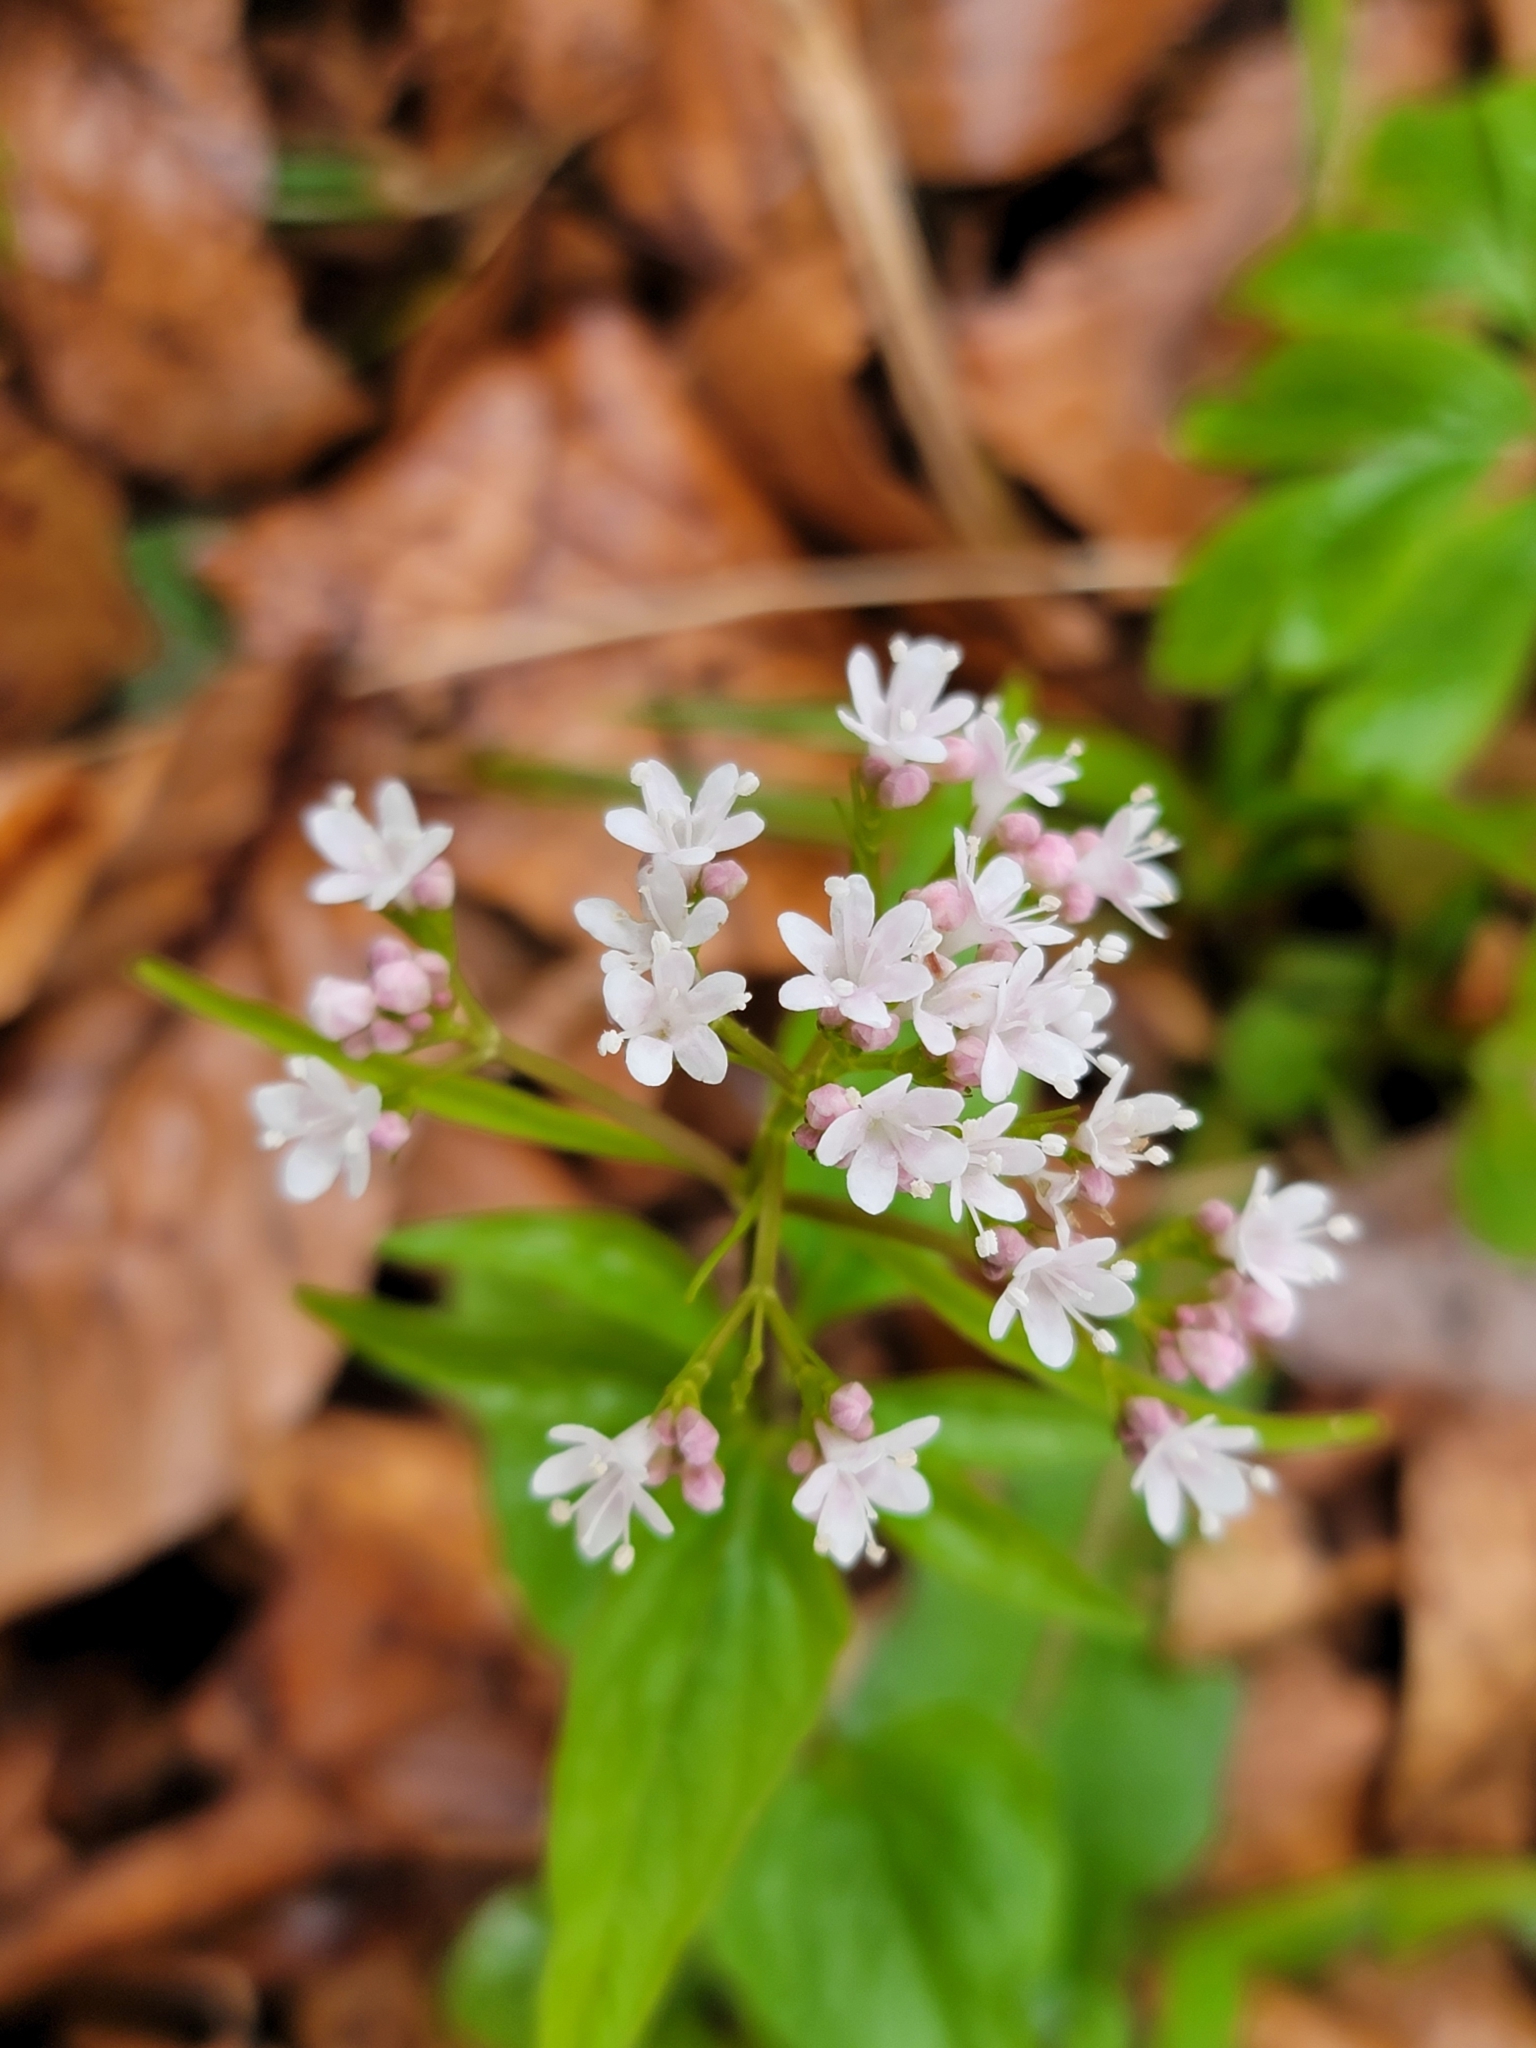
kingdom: Plantae
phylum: Tracheophyta
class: Magnoliopsida
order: Dipsacales
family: Caprifoliaceae
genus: Valeriana
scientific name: Valeriana tripteris
